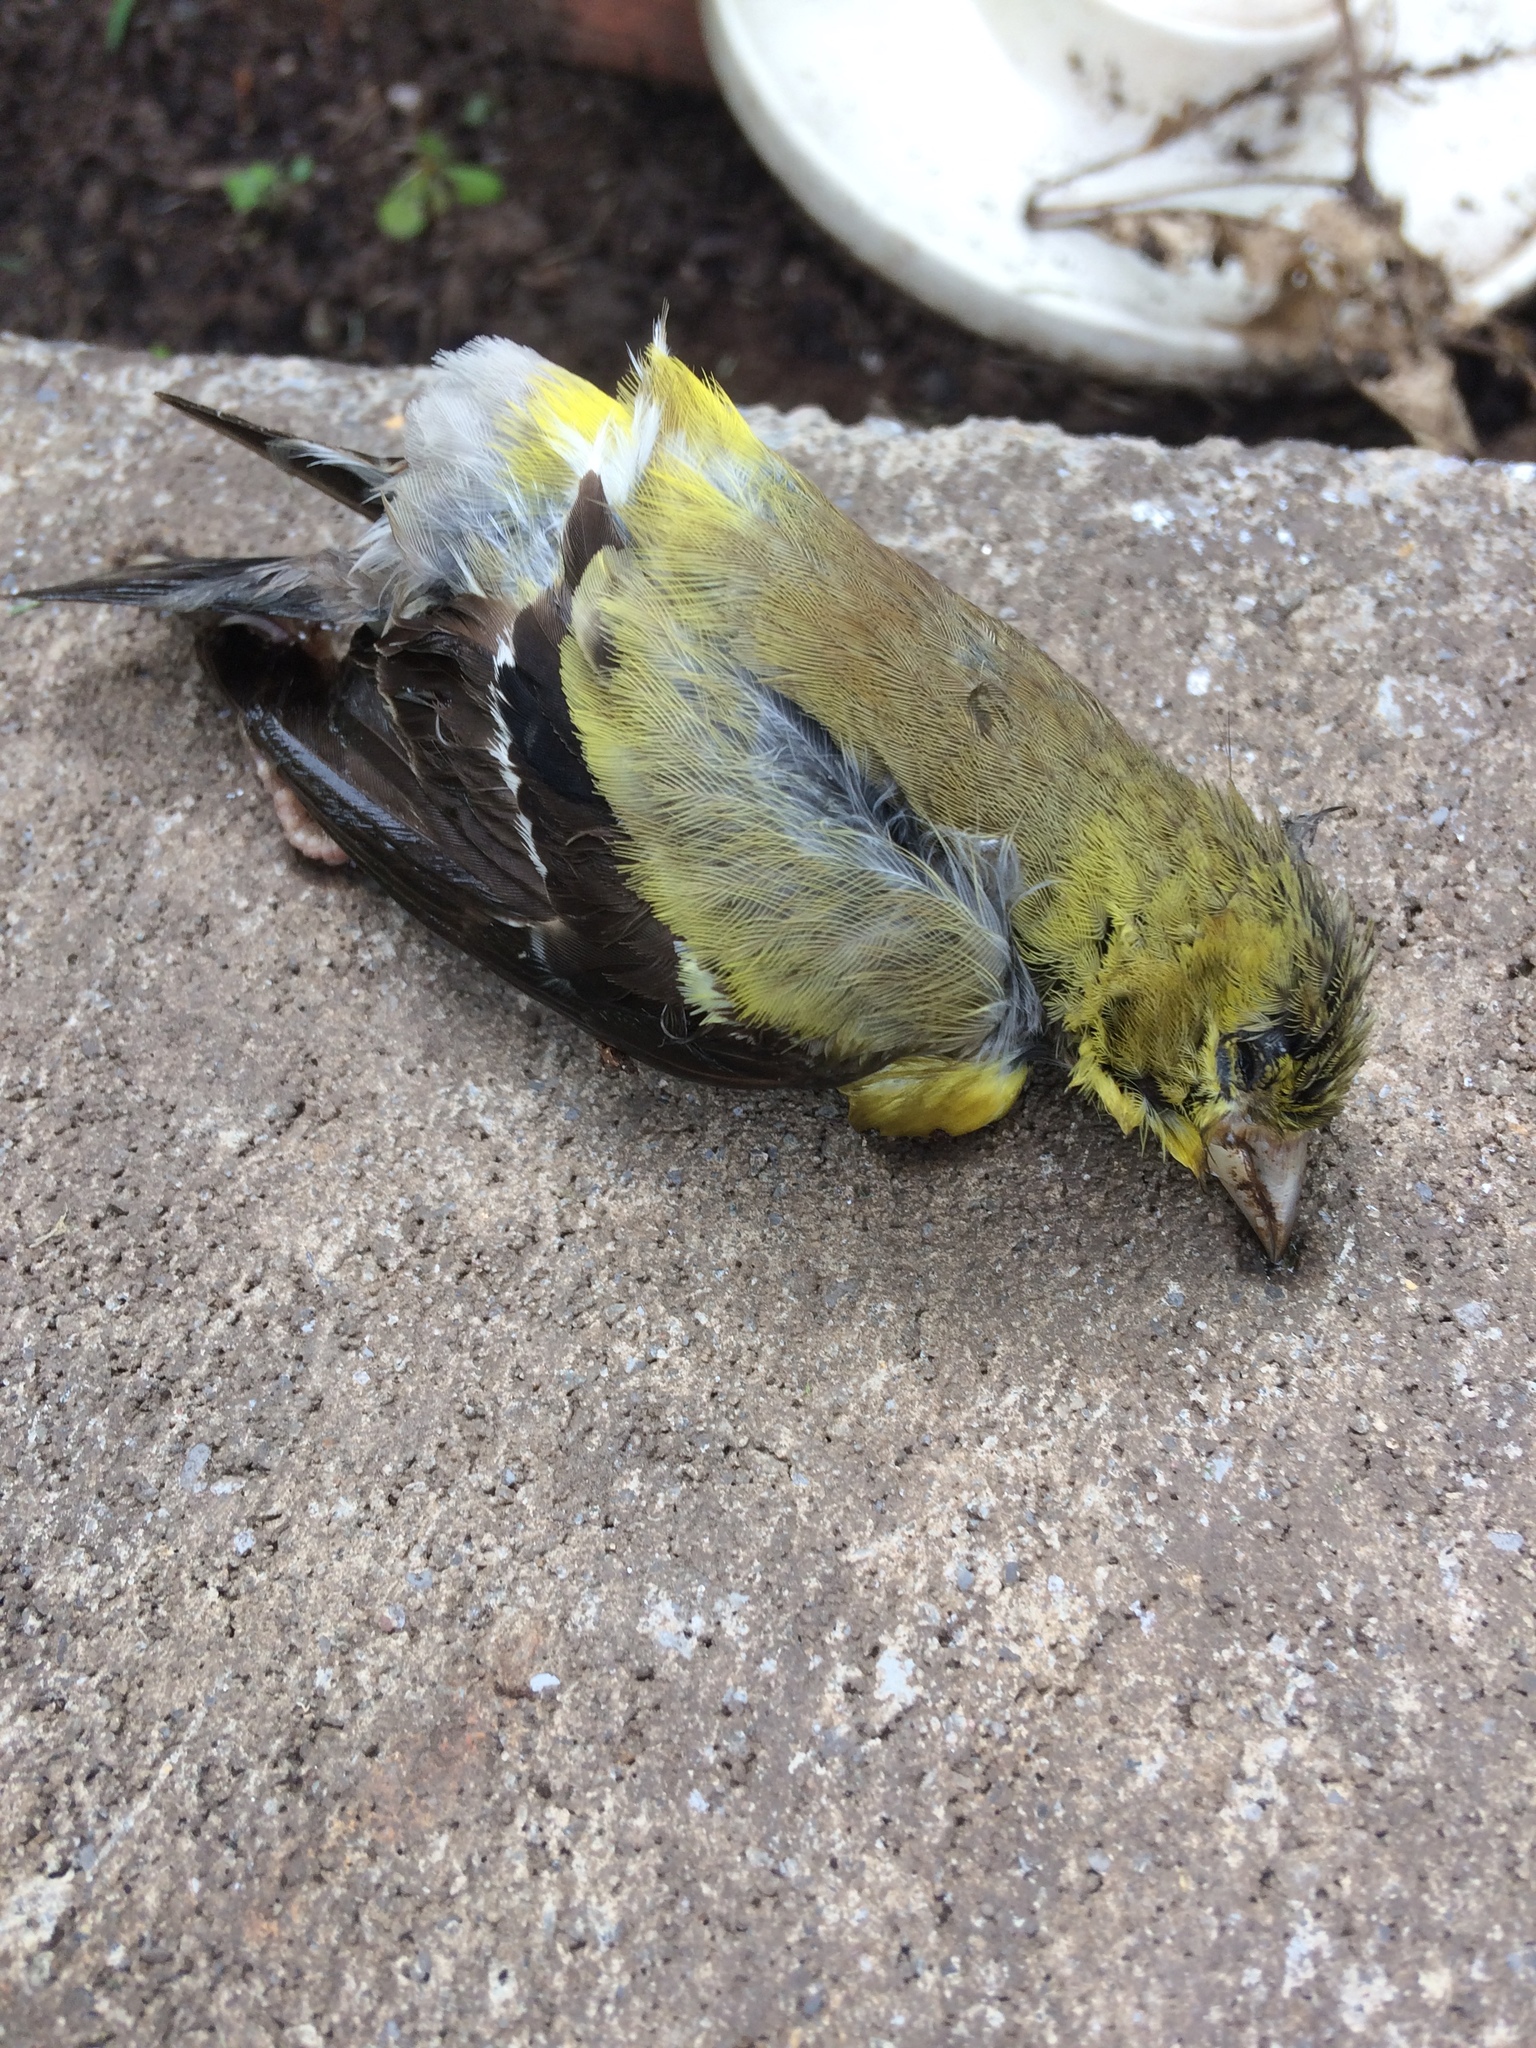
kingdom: Animalia
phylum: Chordata
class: Aves
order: Passeriformes
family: Fringillidae
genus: Spinus
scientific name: Spinus tristis
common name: American goldfinch
